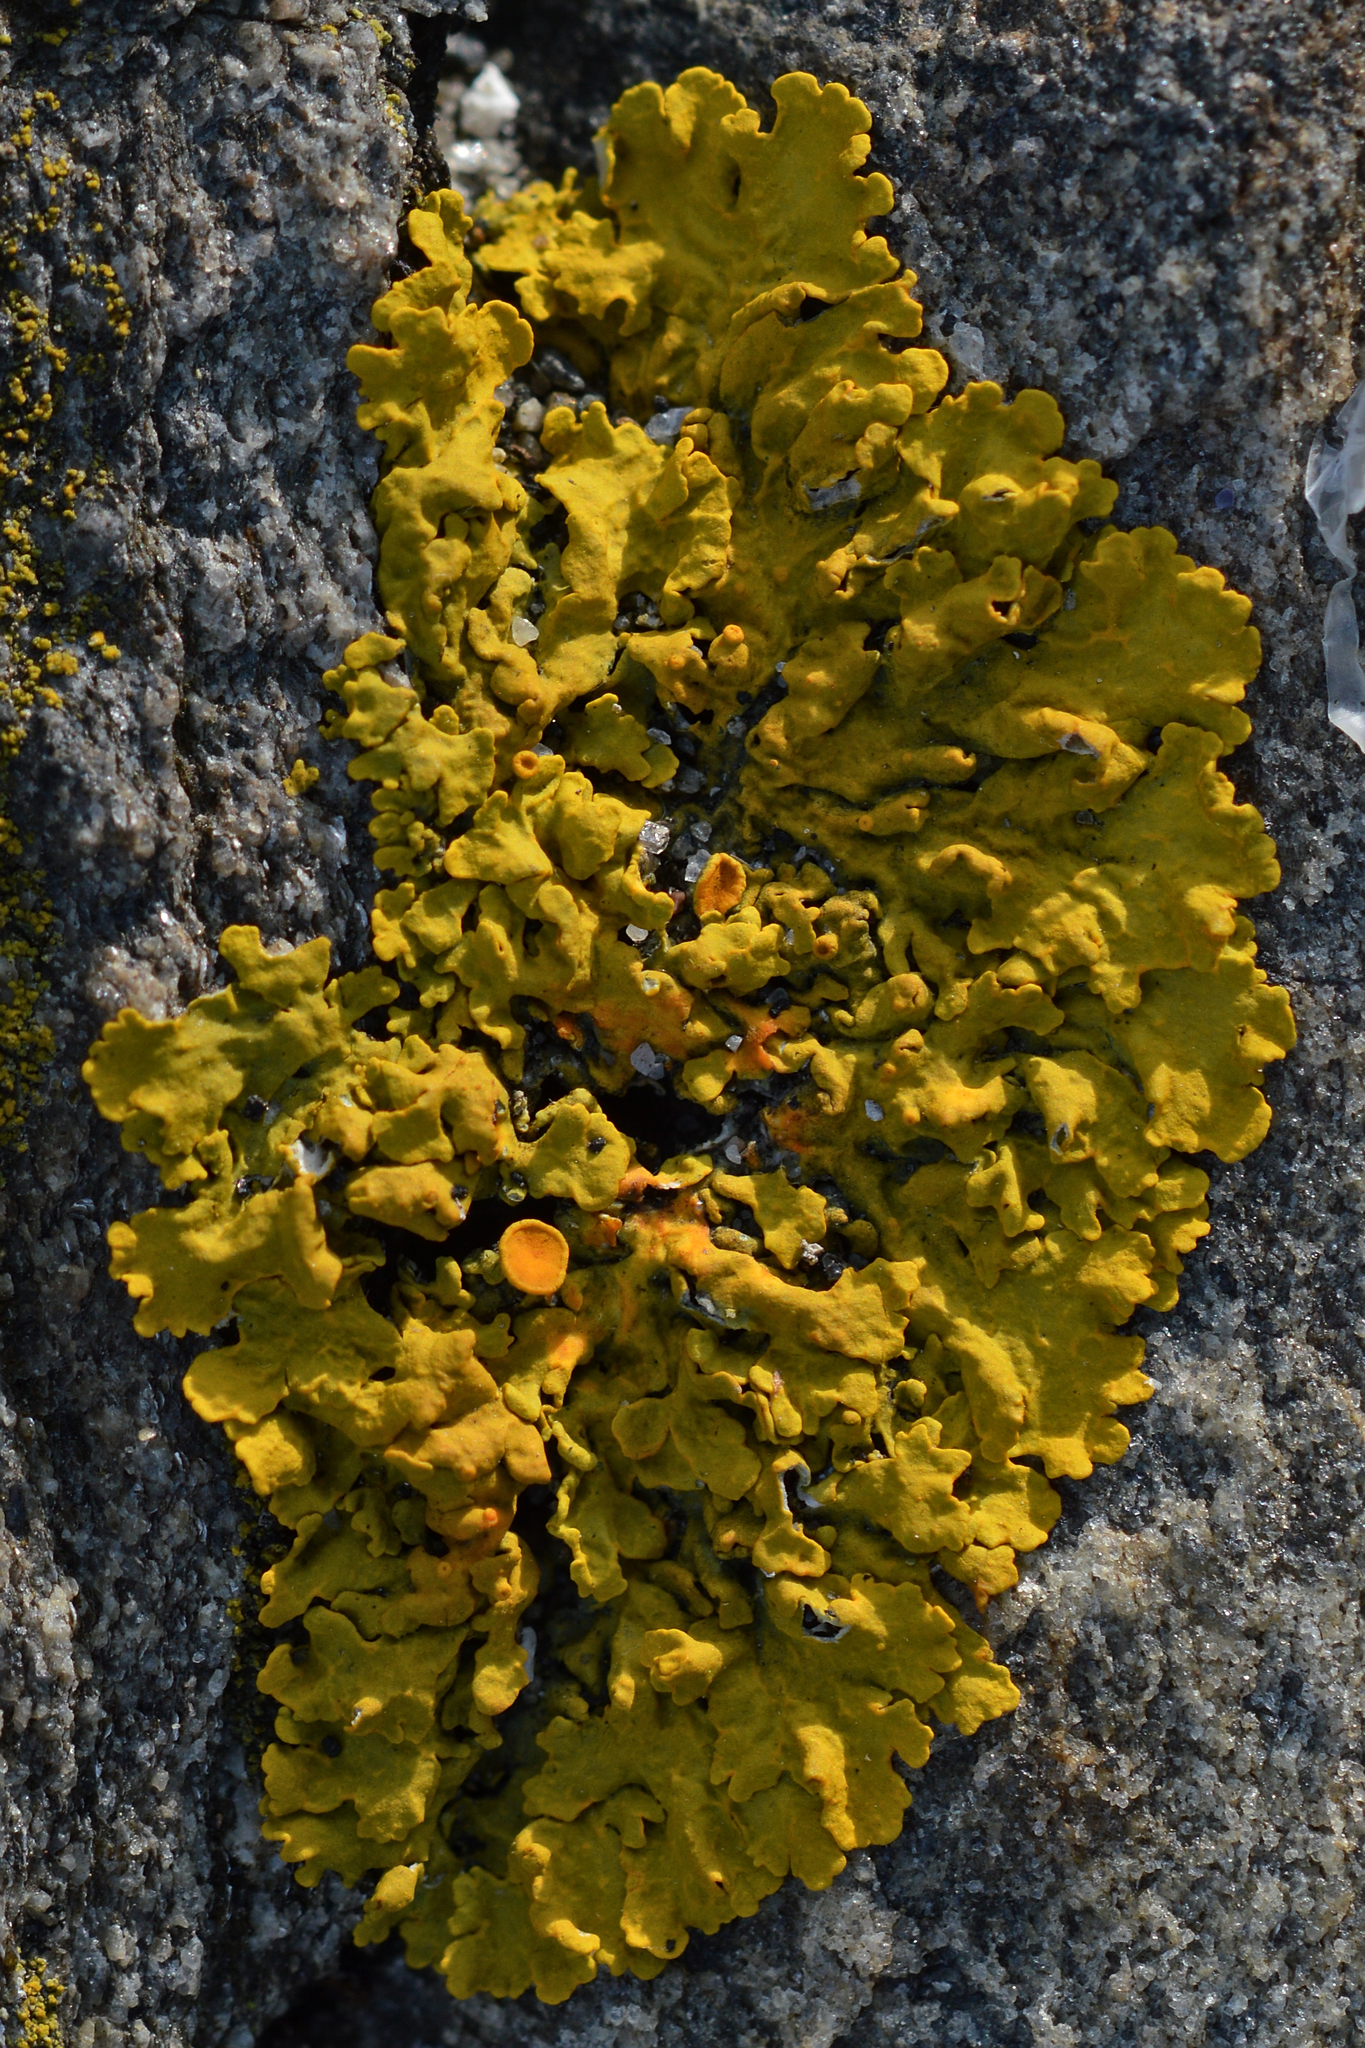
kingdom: Fungi
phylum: Ascomycota
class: Lecanoromycetes
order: Teloschistales
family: Teloschistaceae
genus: Xanthoria
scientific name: Xanthoria parietina
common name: Common orange lichen
